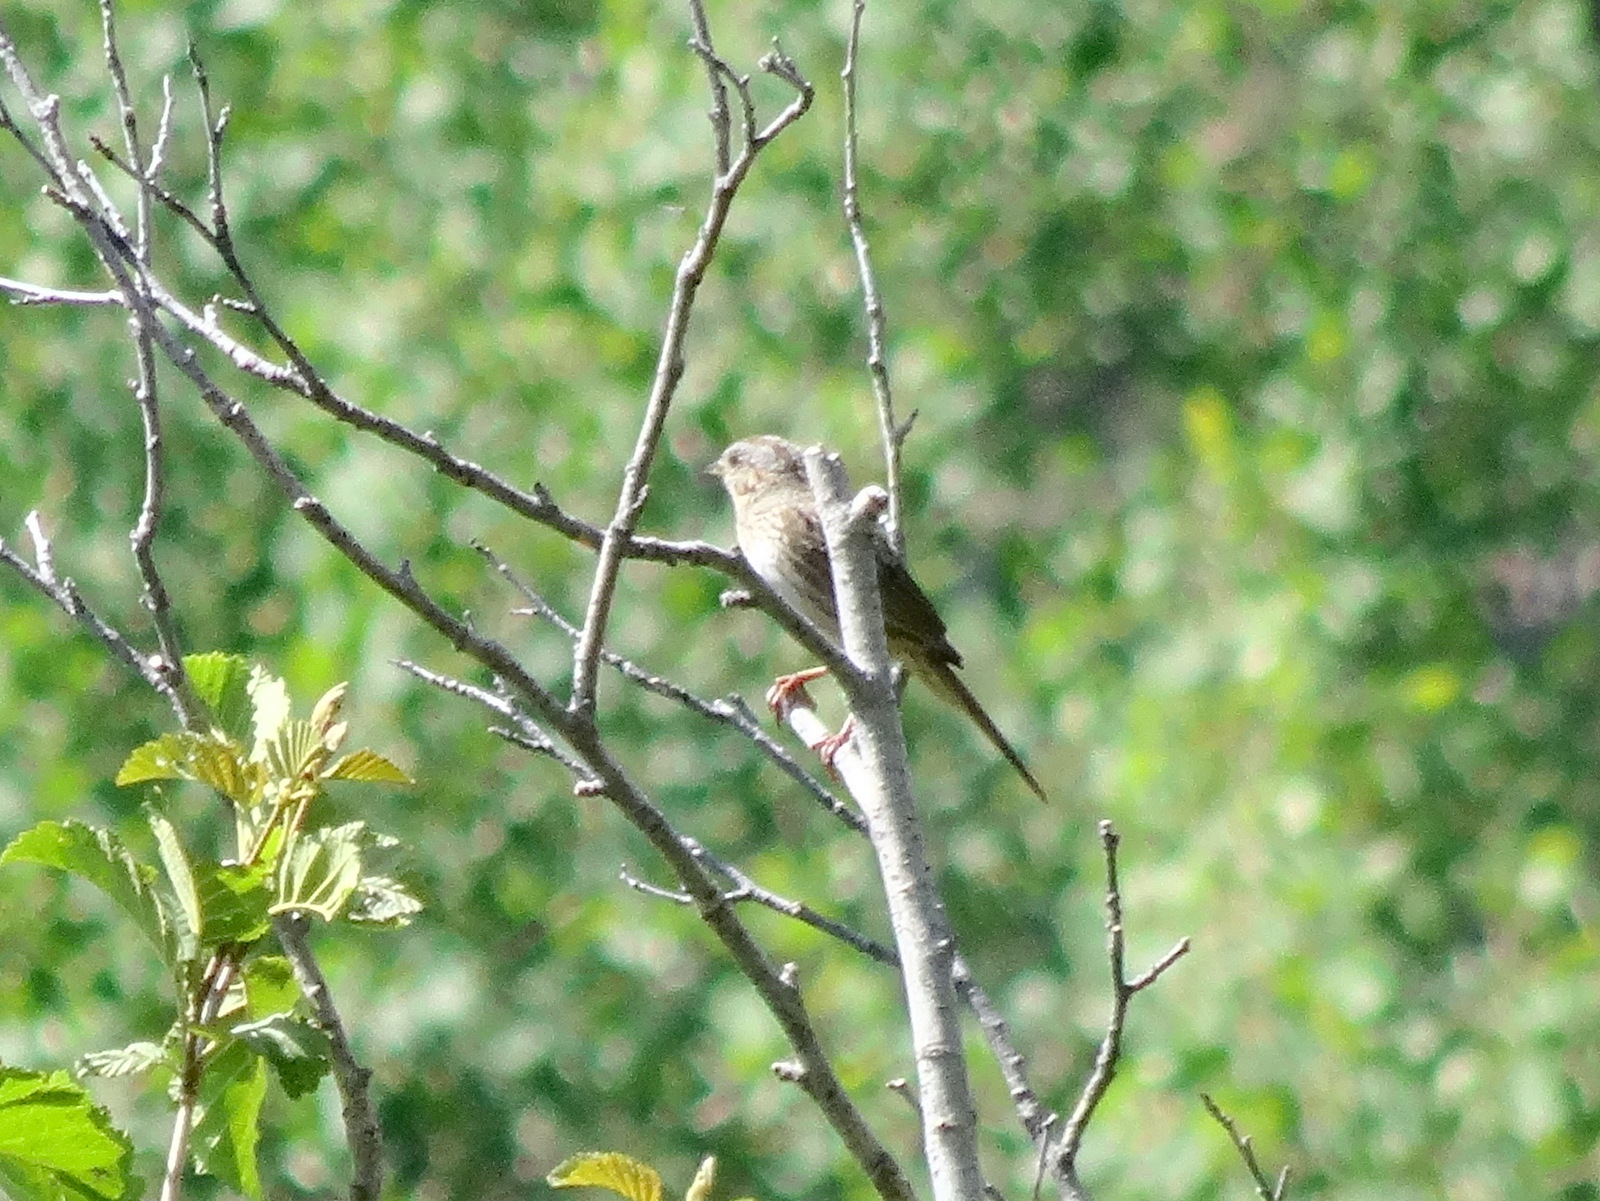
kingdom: Animalia
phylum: Chordata
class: Aves
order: Passeriformes
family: Passerellidae
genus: Melospiza
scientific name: Melospiza lincolnii
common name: Lincoln's sparrow
